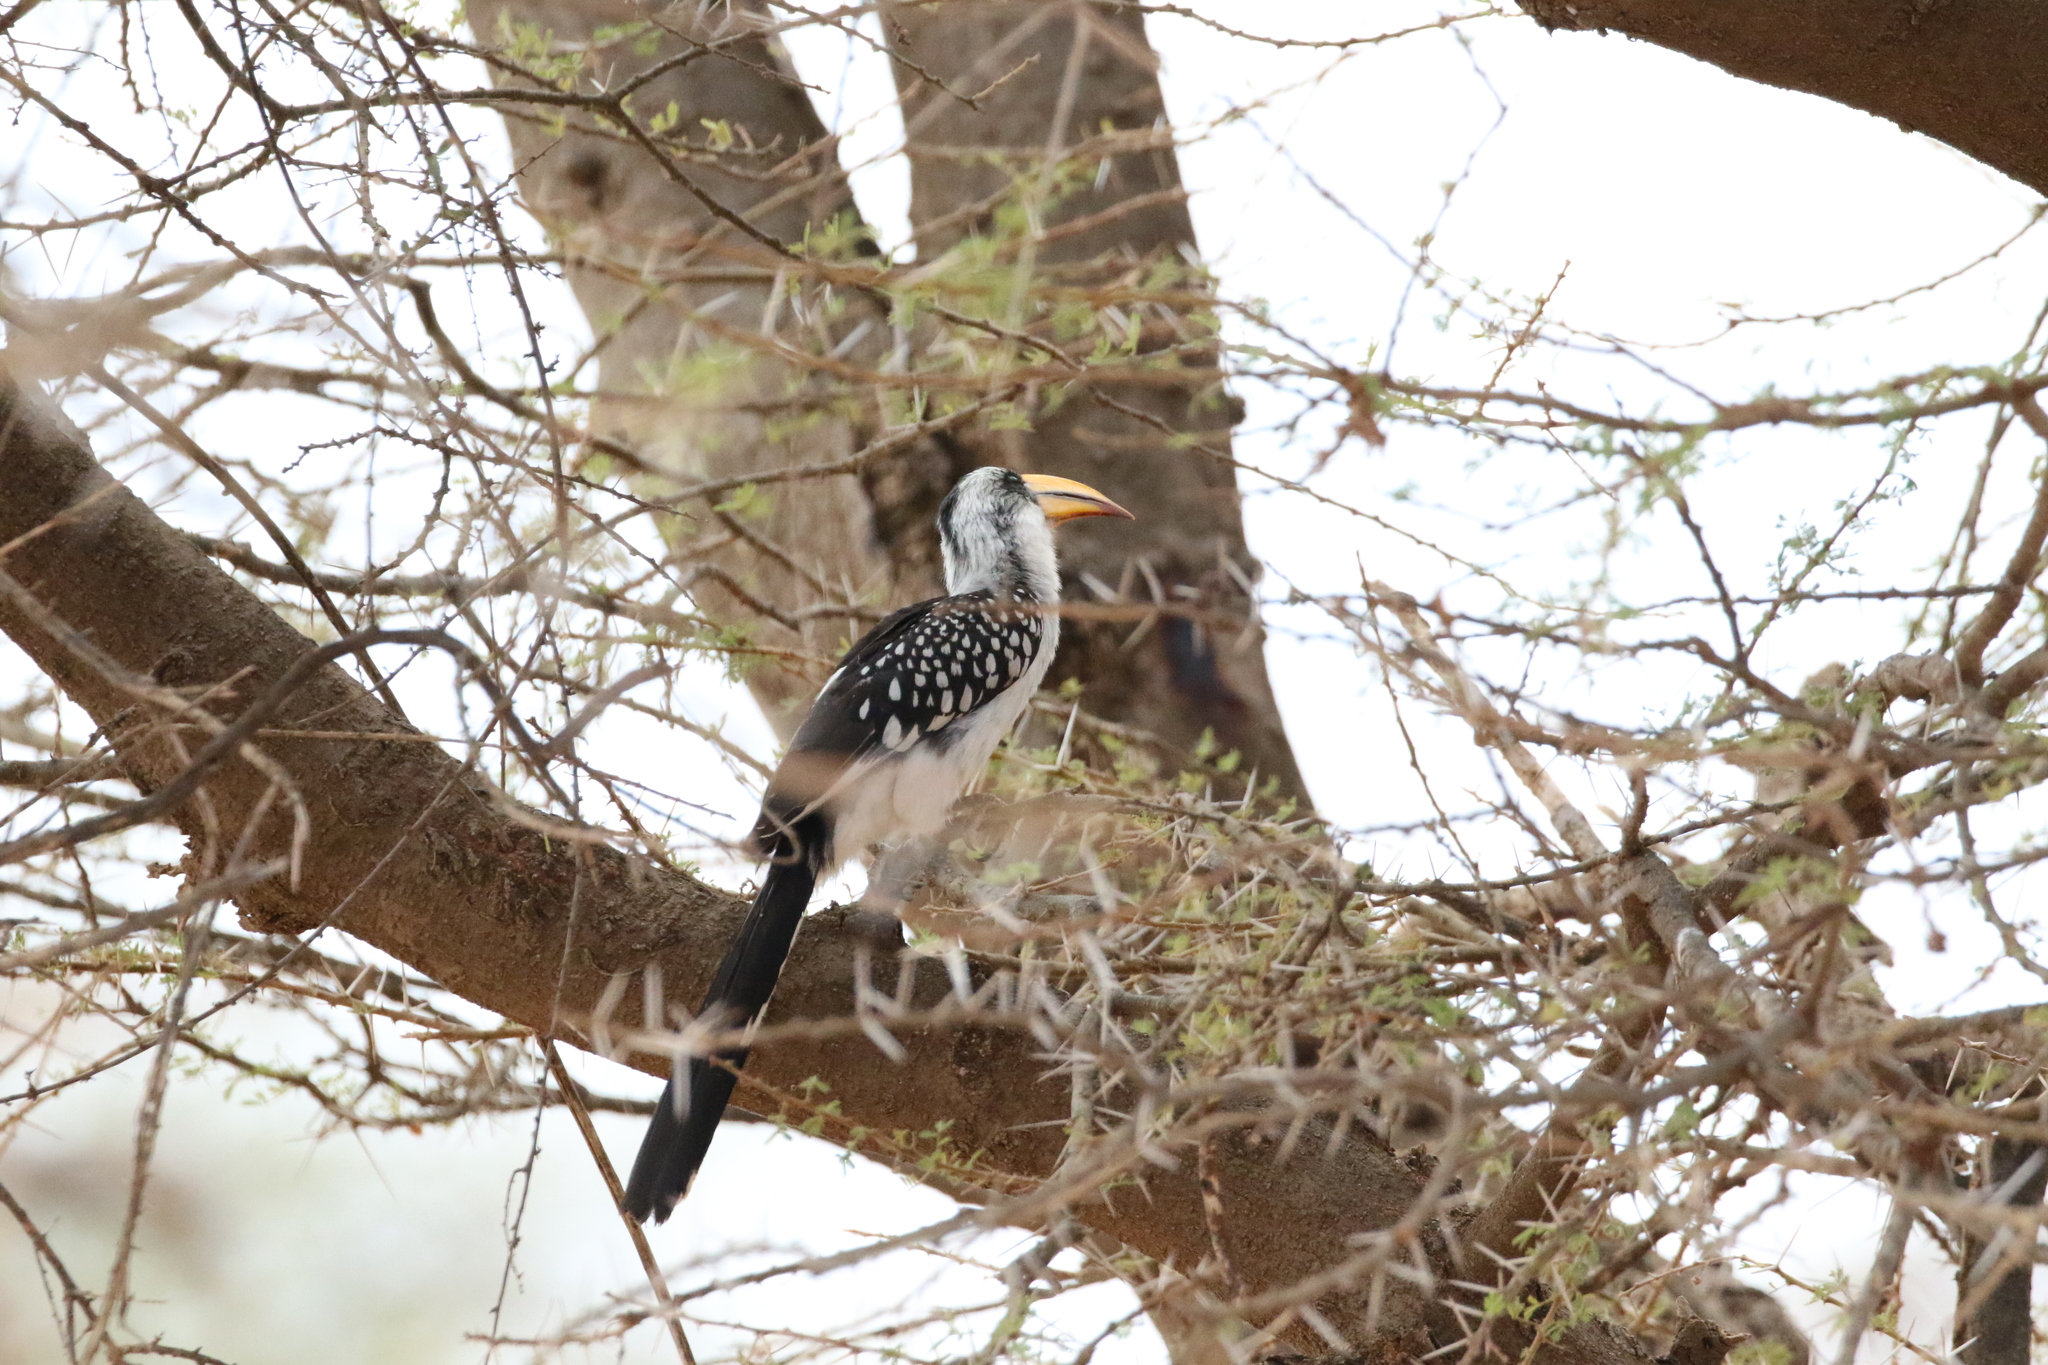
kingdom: Animalia
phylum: Chordata
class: Aves
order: Bucerotiformes
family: Bucerotidae
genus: Tockus
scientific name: Tockus flavirostris
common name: Eastern yellow-billed hornbill
